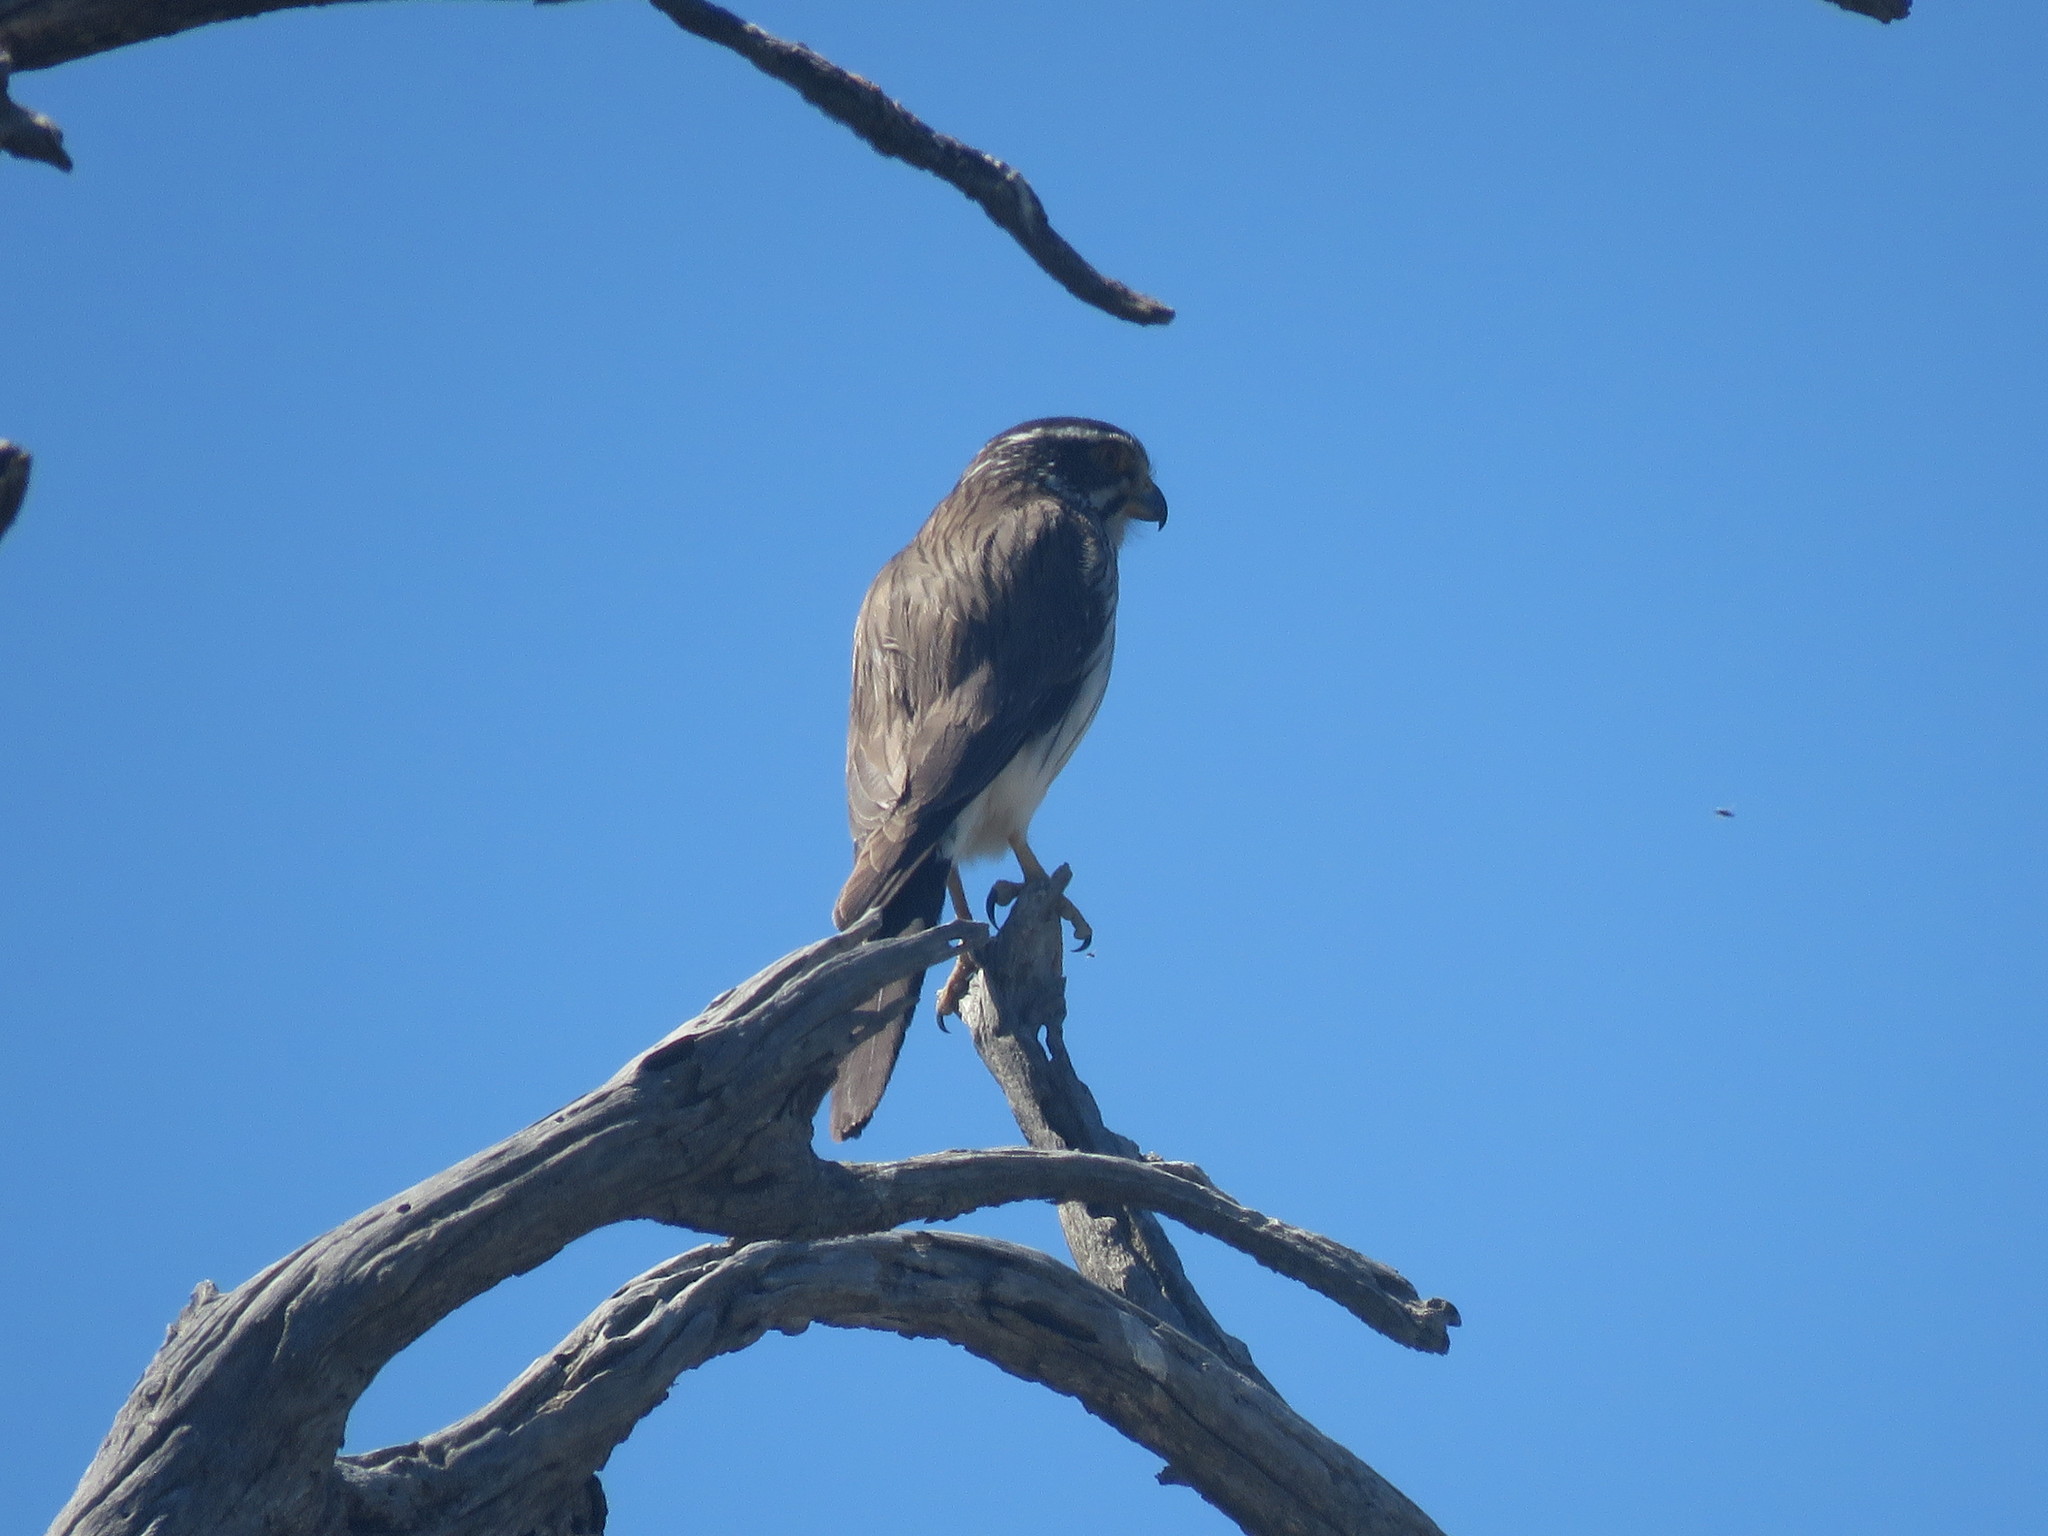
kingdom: Animalia
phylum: Chordata
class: Aves
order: Falconiformes
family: Falconidae
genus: Spiziapteryx
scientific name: Spiziapteryx circumcincta
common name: Spot-winged falconet
